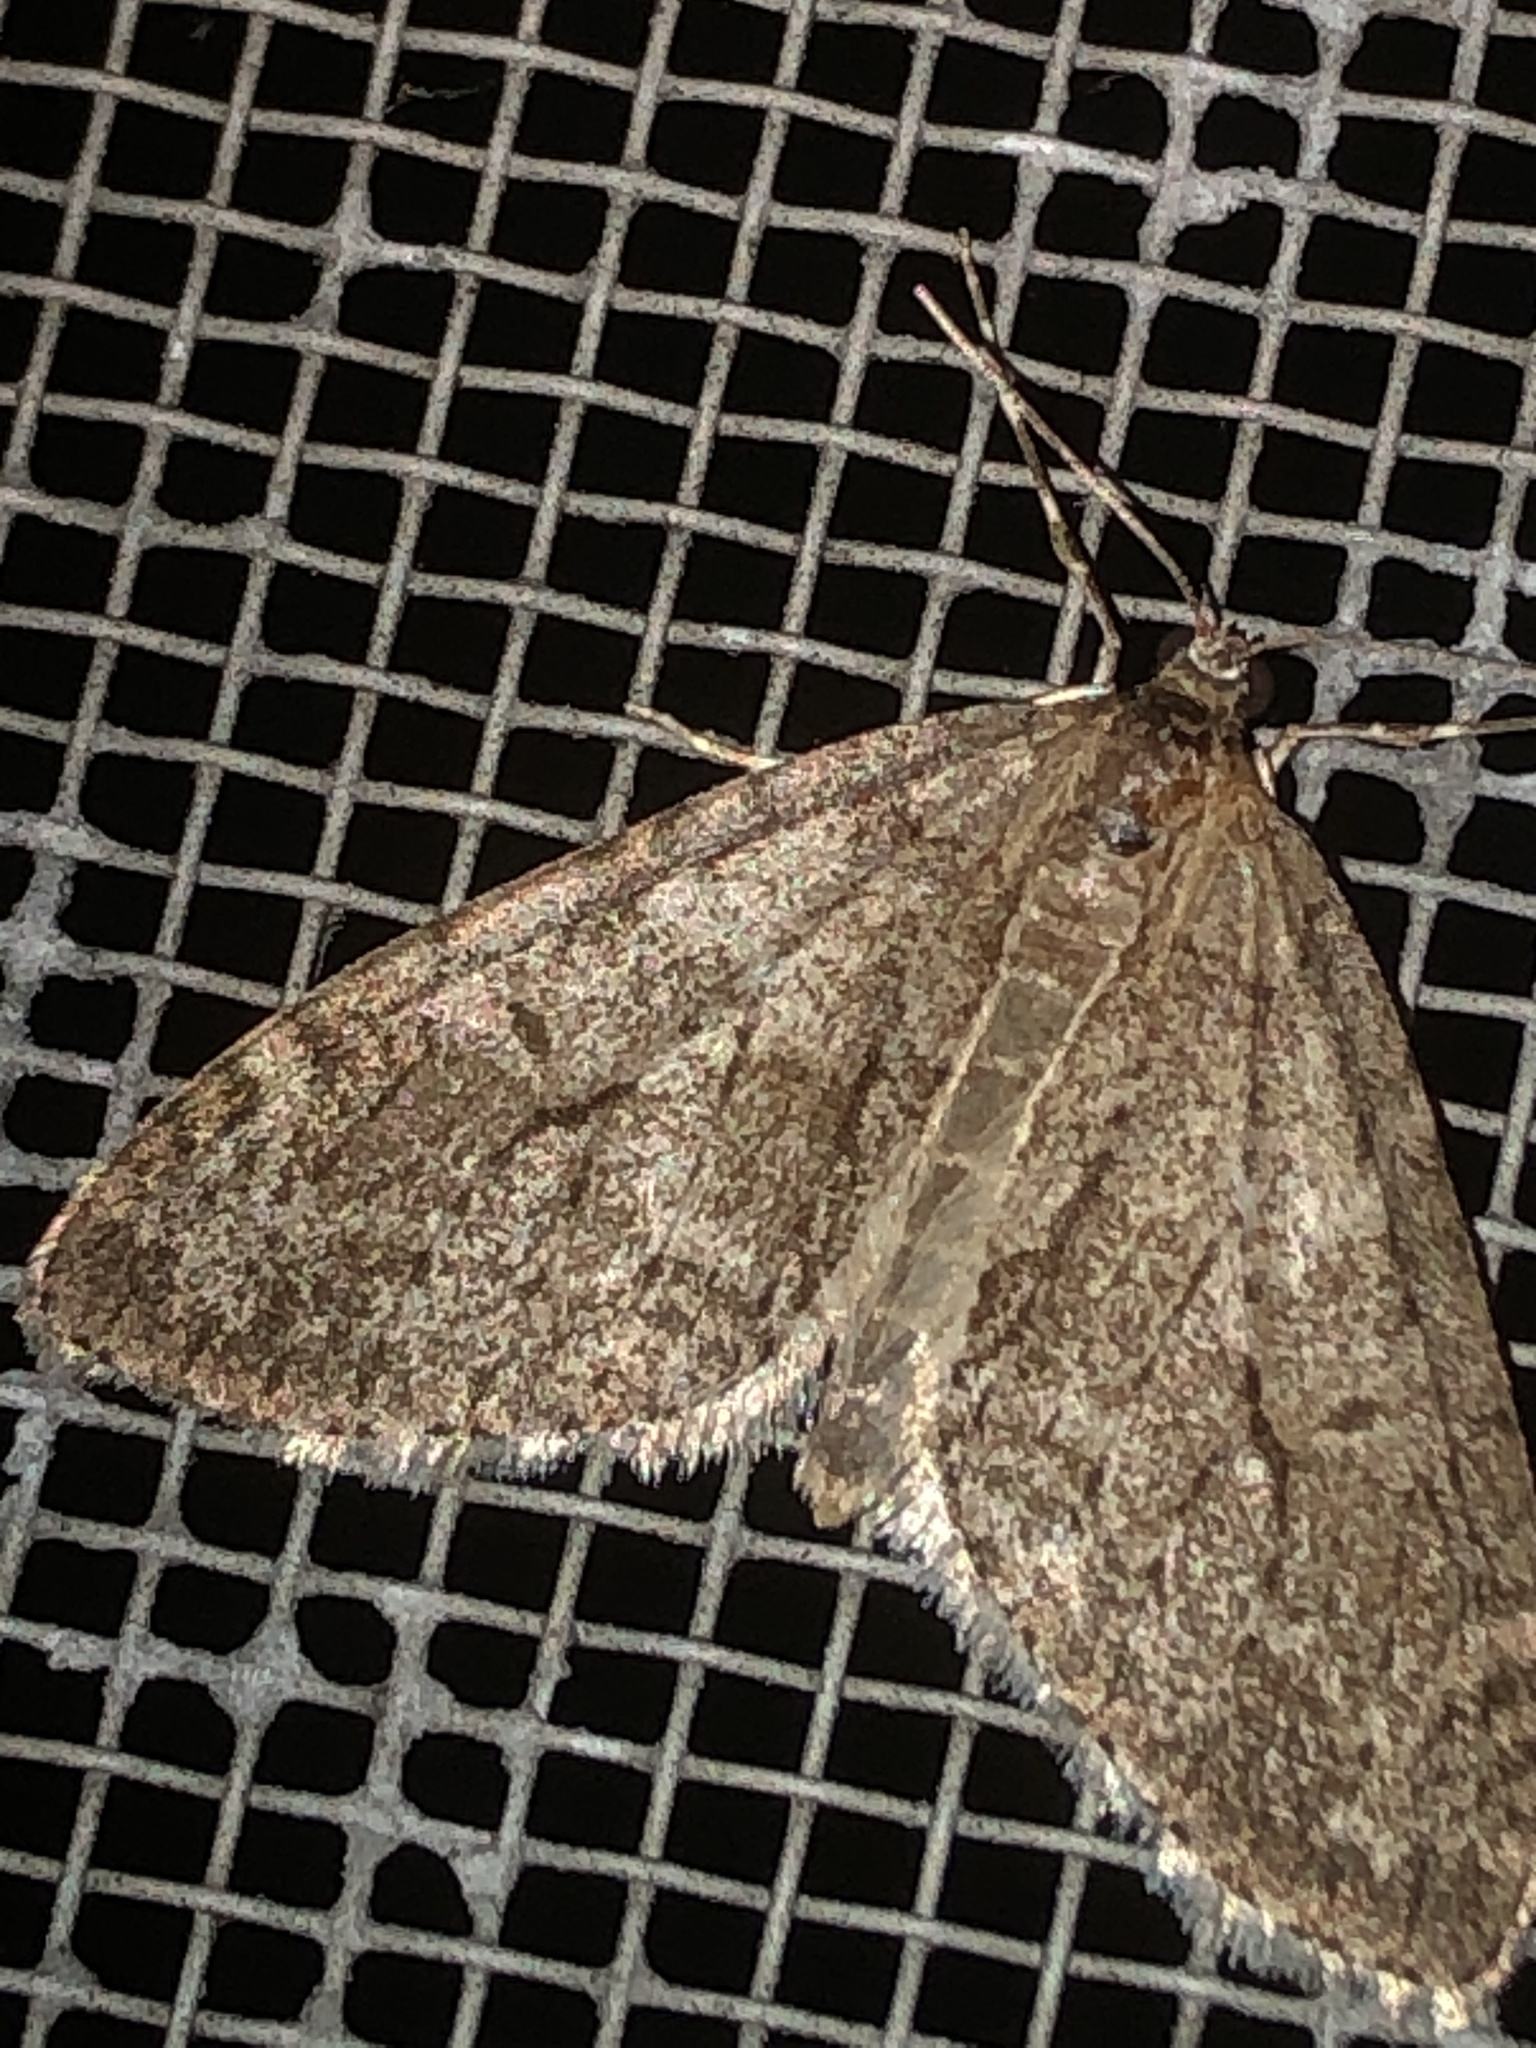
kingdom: Animalia
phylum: Arthropoda
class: Insecta
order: Lepidoptera
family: Geometridae
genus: Cladara
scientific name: Cladara limitaria
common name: Mottled gray carpet
